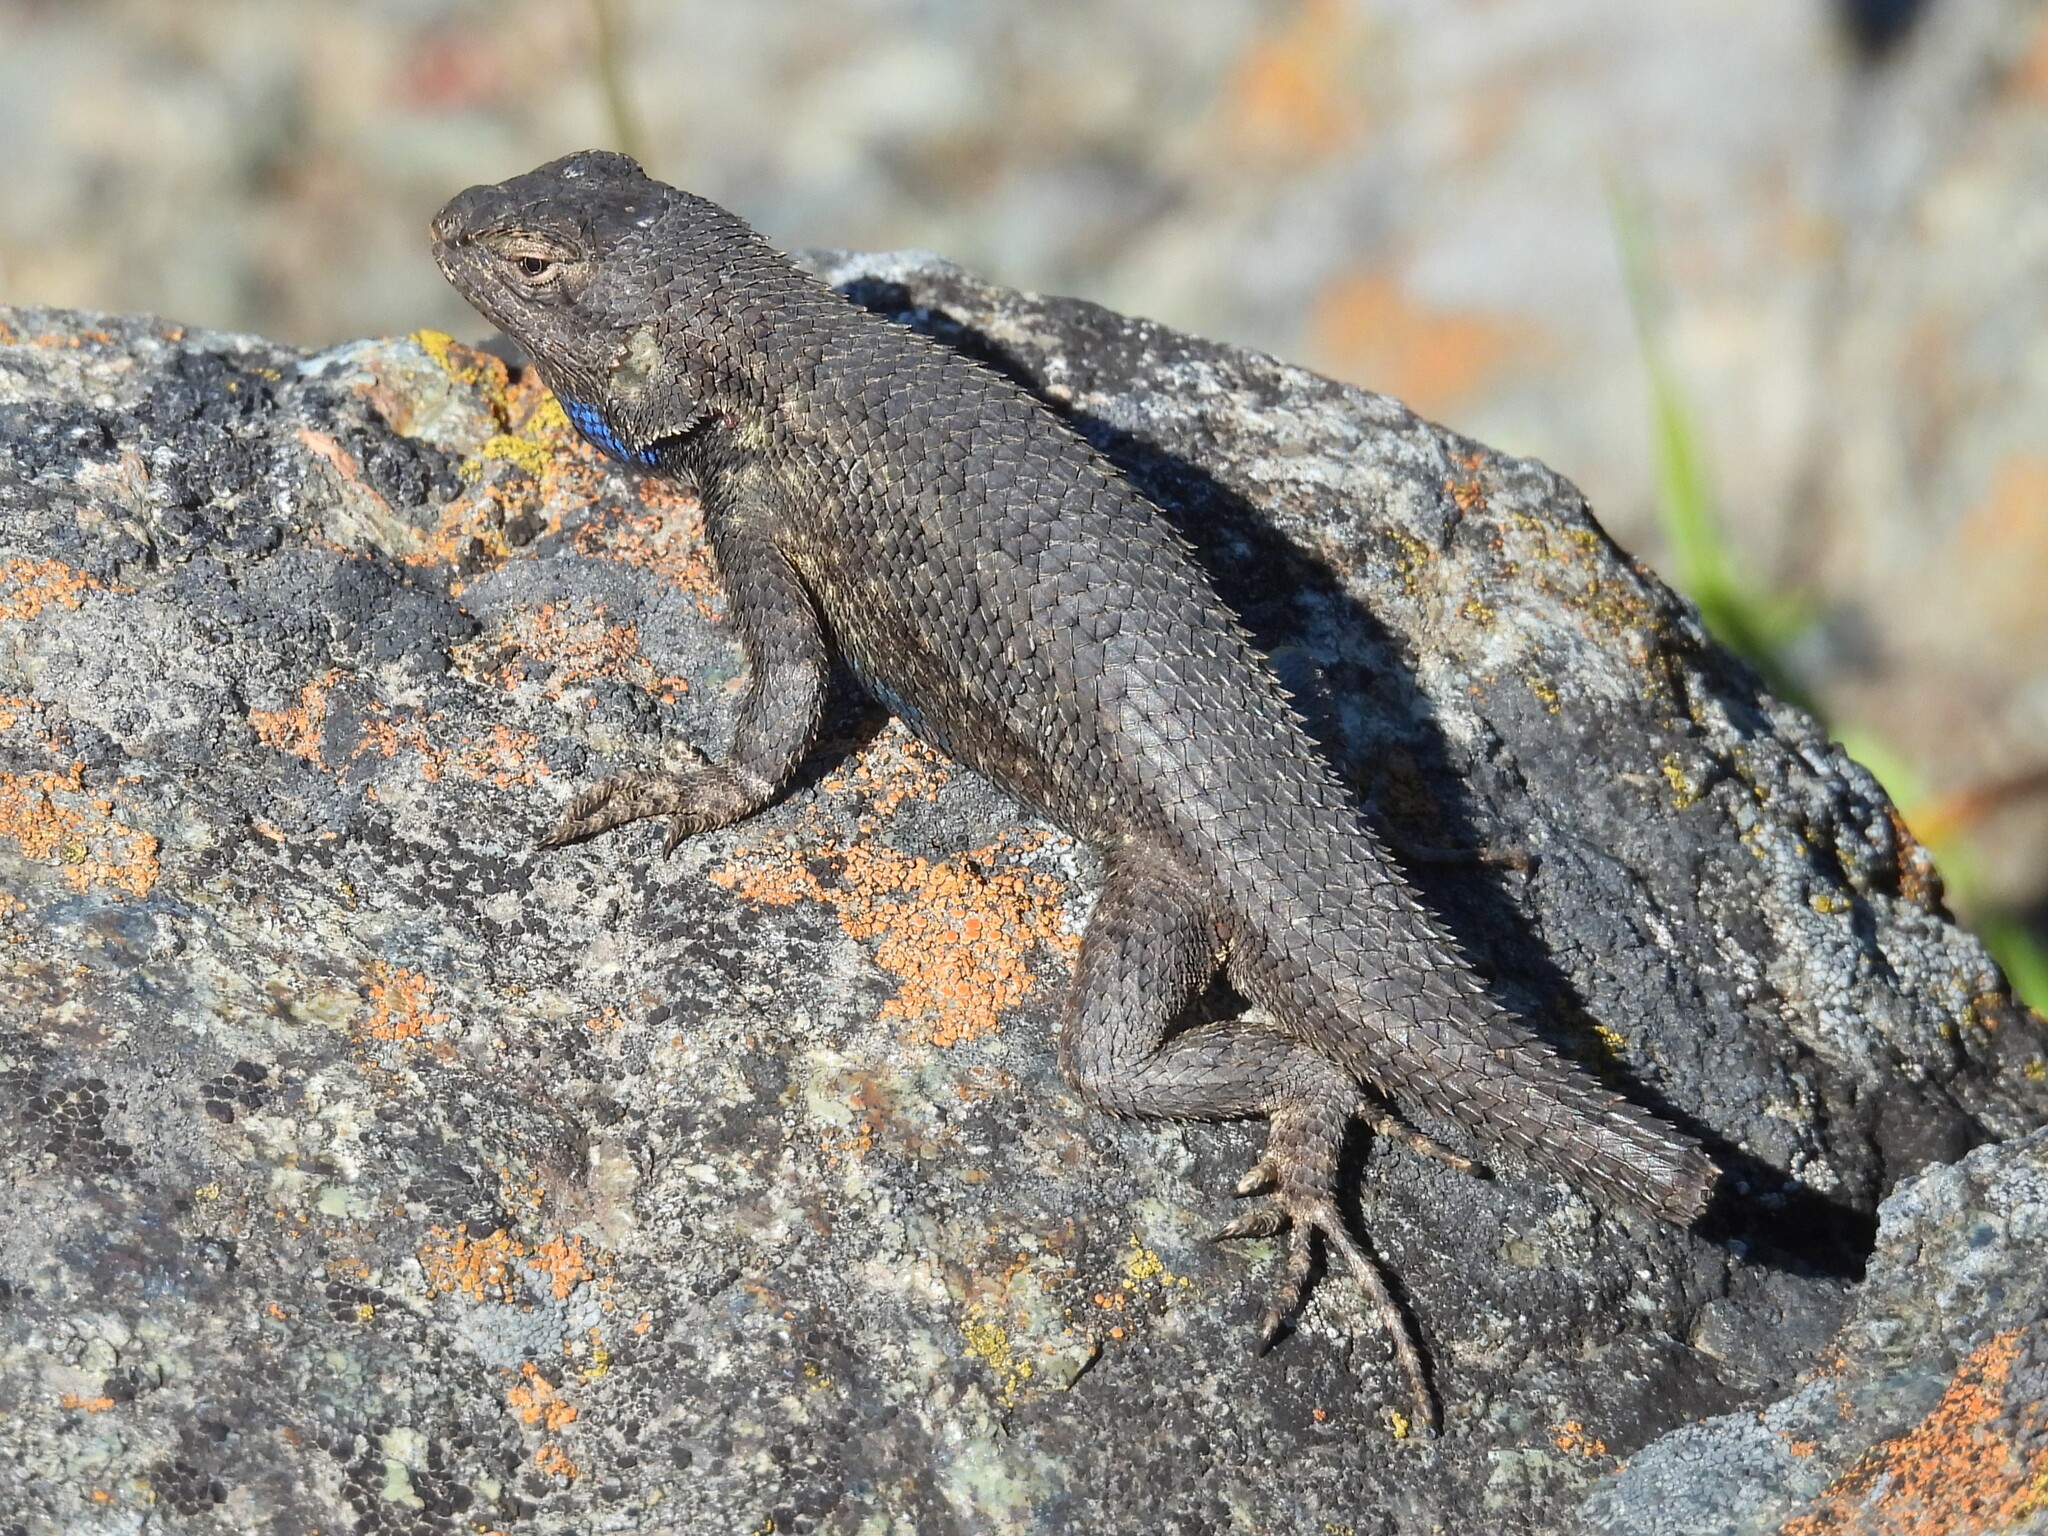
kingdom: Animalia
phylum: Chordata
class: Squamata
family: Phrynosomatidae
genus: Sceloporus
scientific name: Sceloporus occidentalis
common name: Western fence lizard
